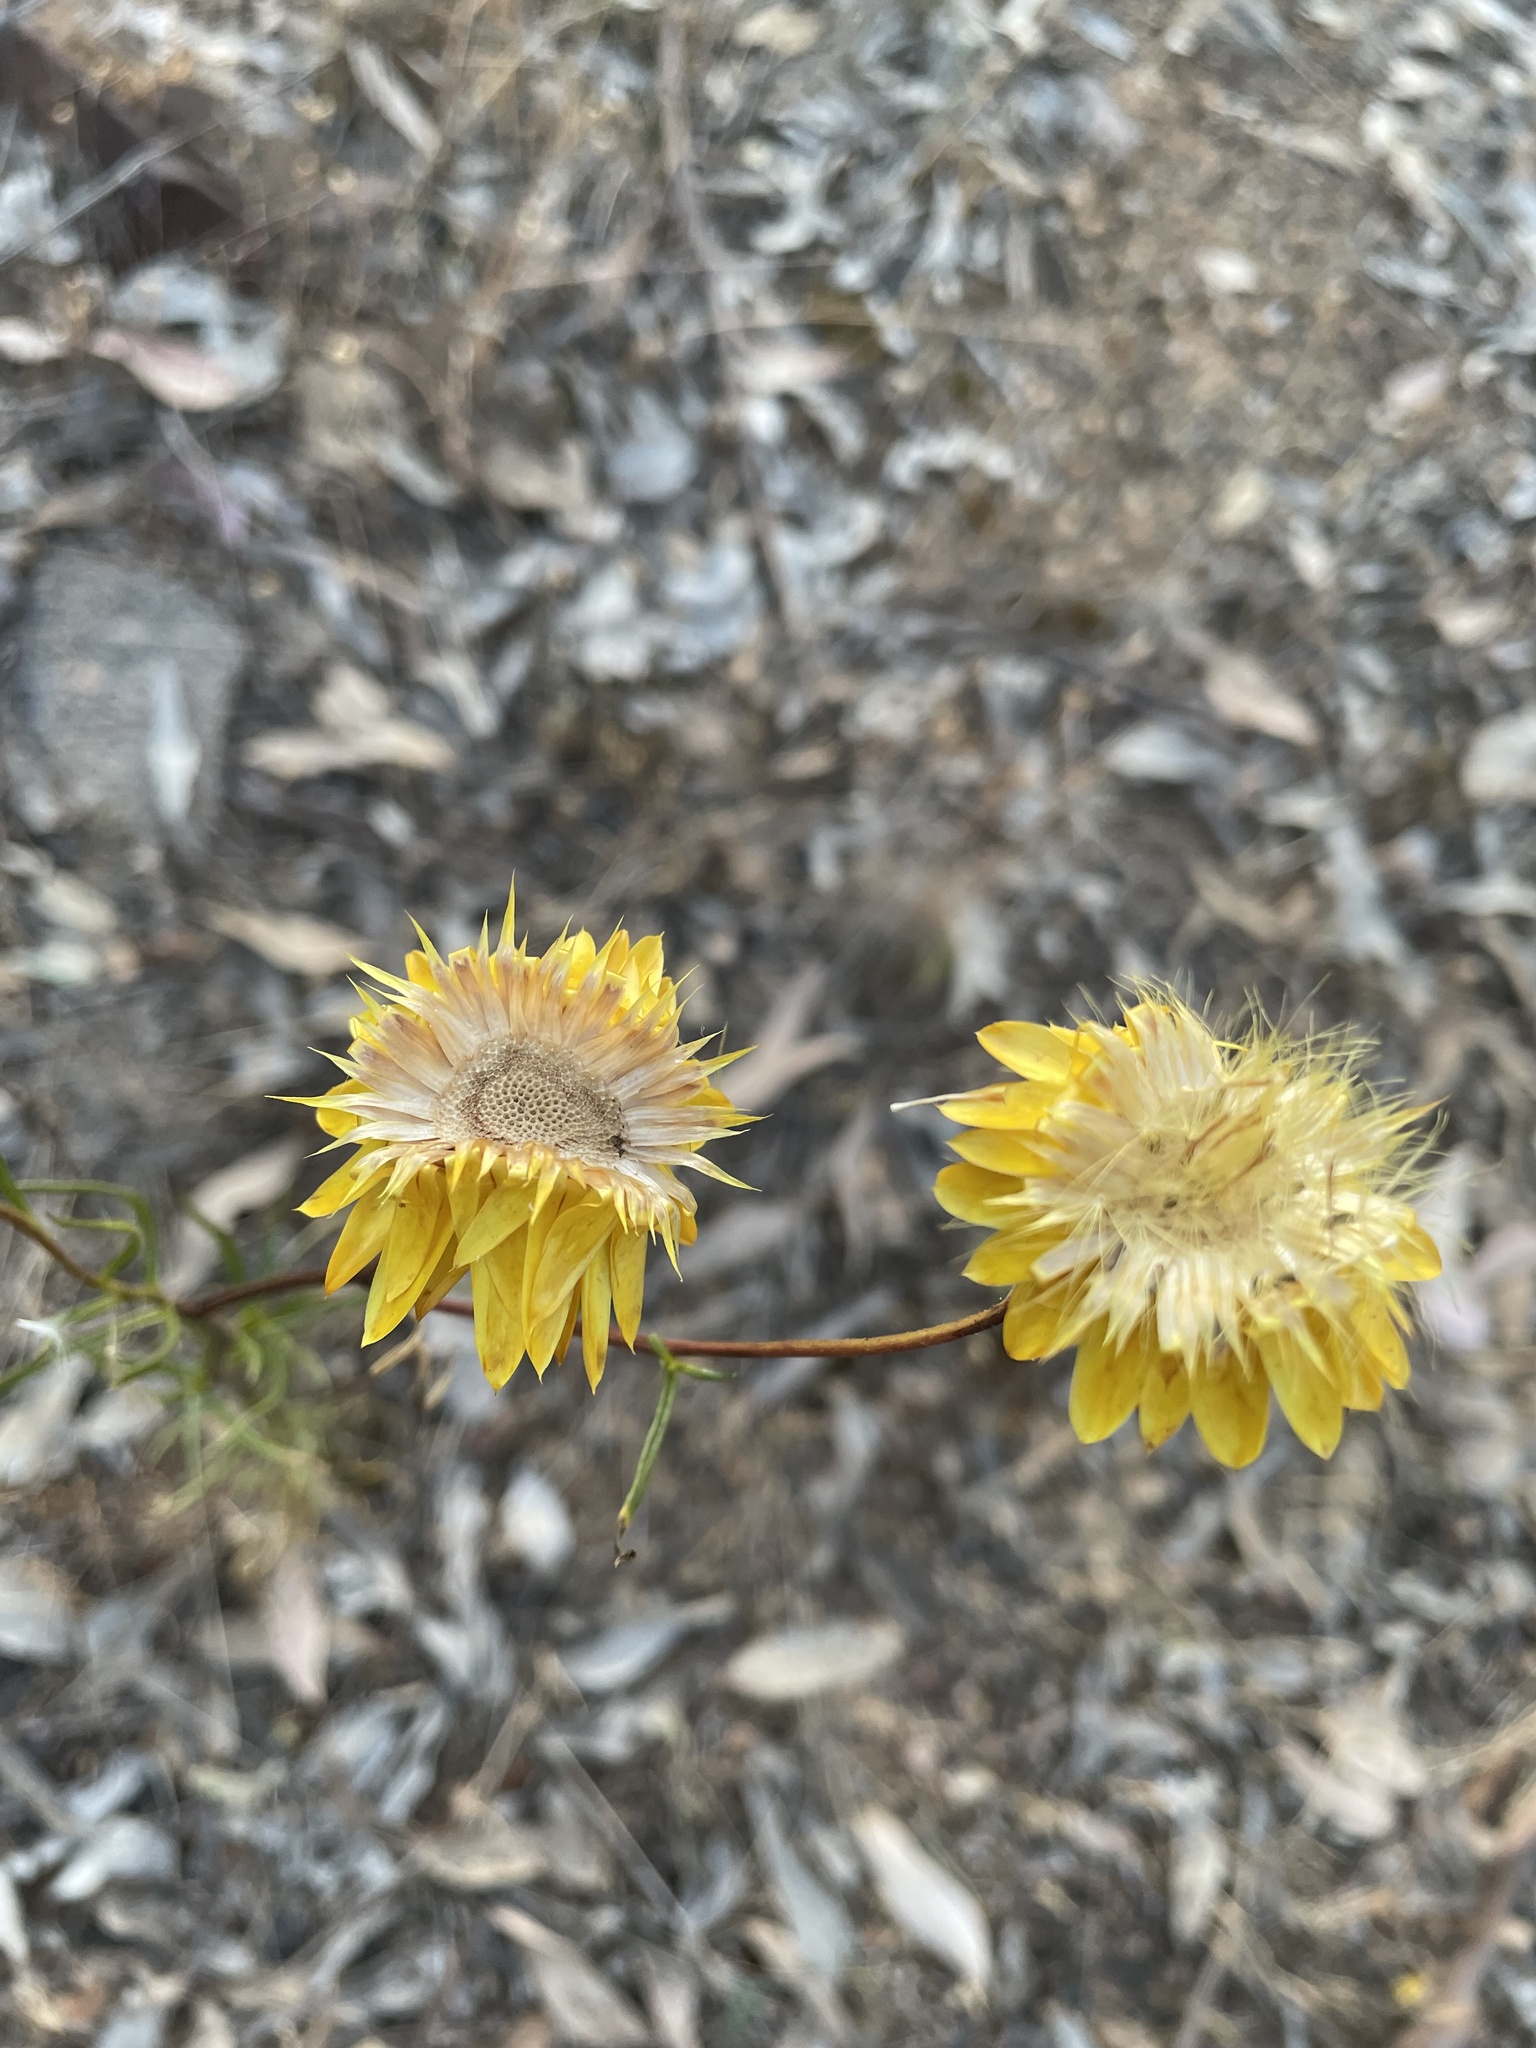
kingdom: Plantae
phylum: Tracheophyta
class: Magnoliopsida
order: Asterales
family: Asteraceae
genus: Xerochrysum
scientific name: Xerochrysum viscosum
